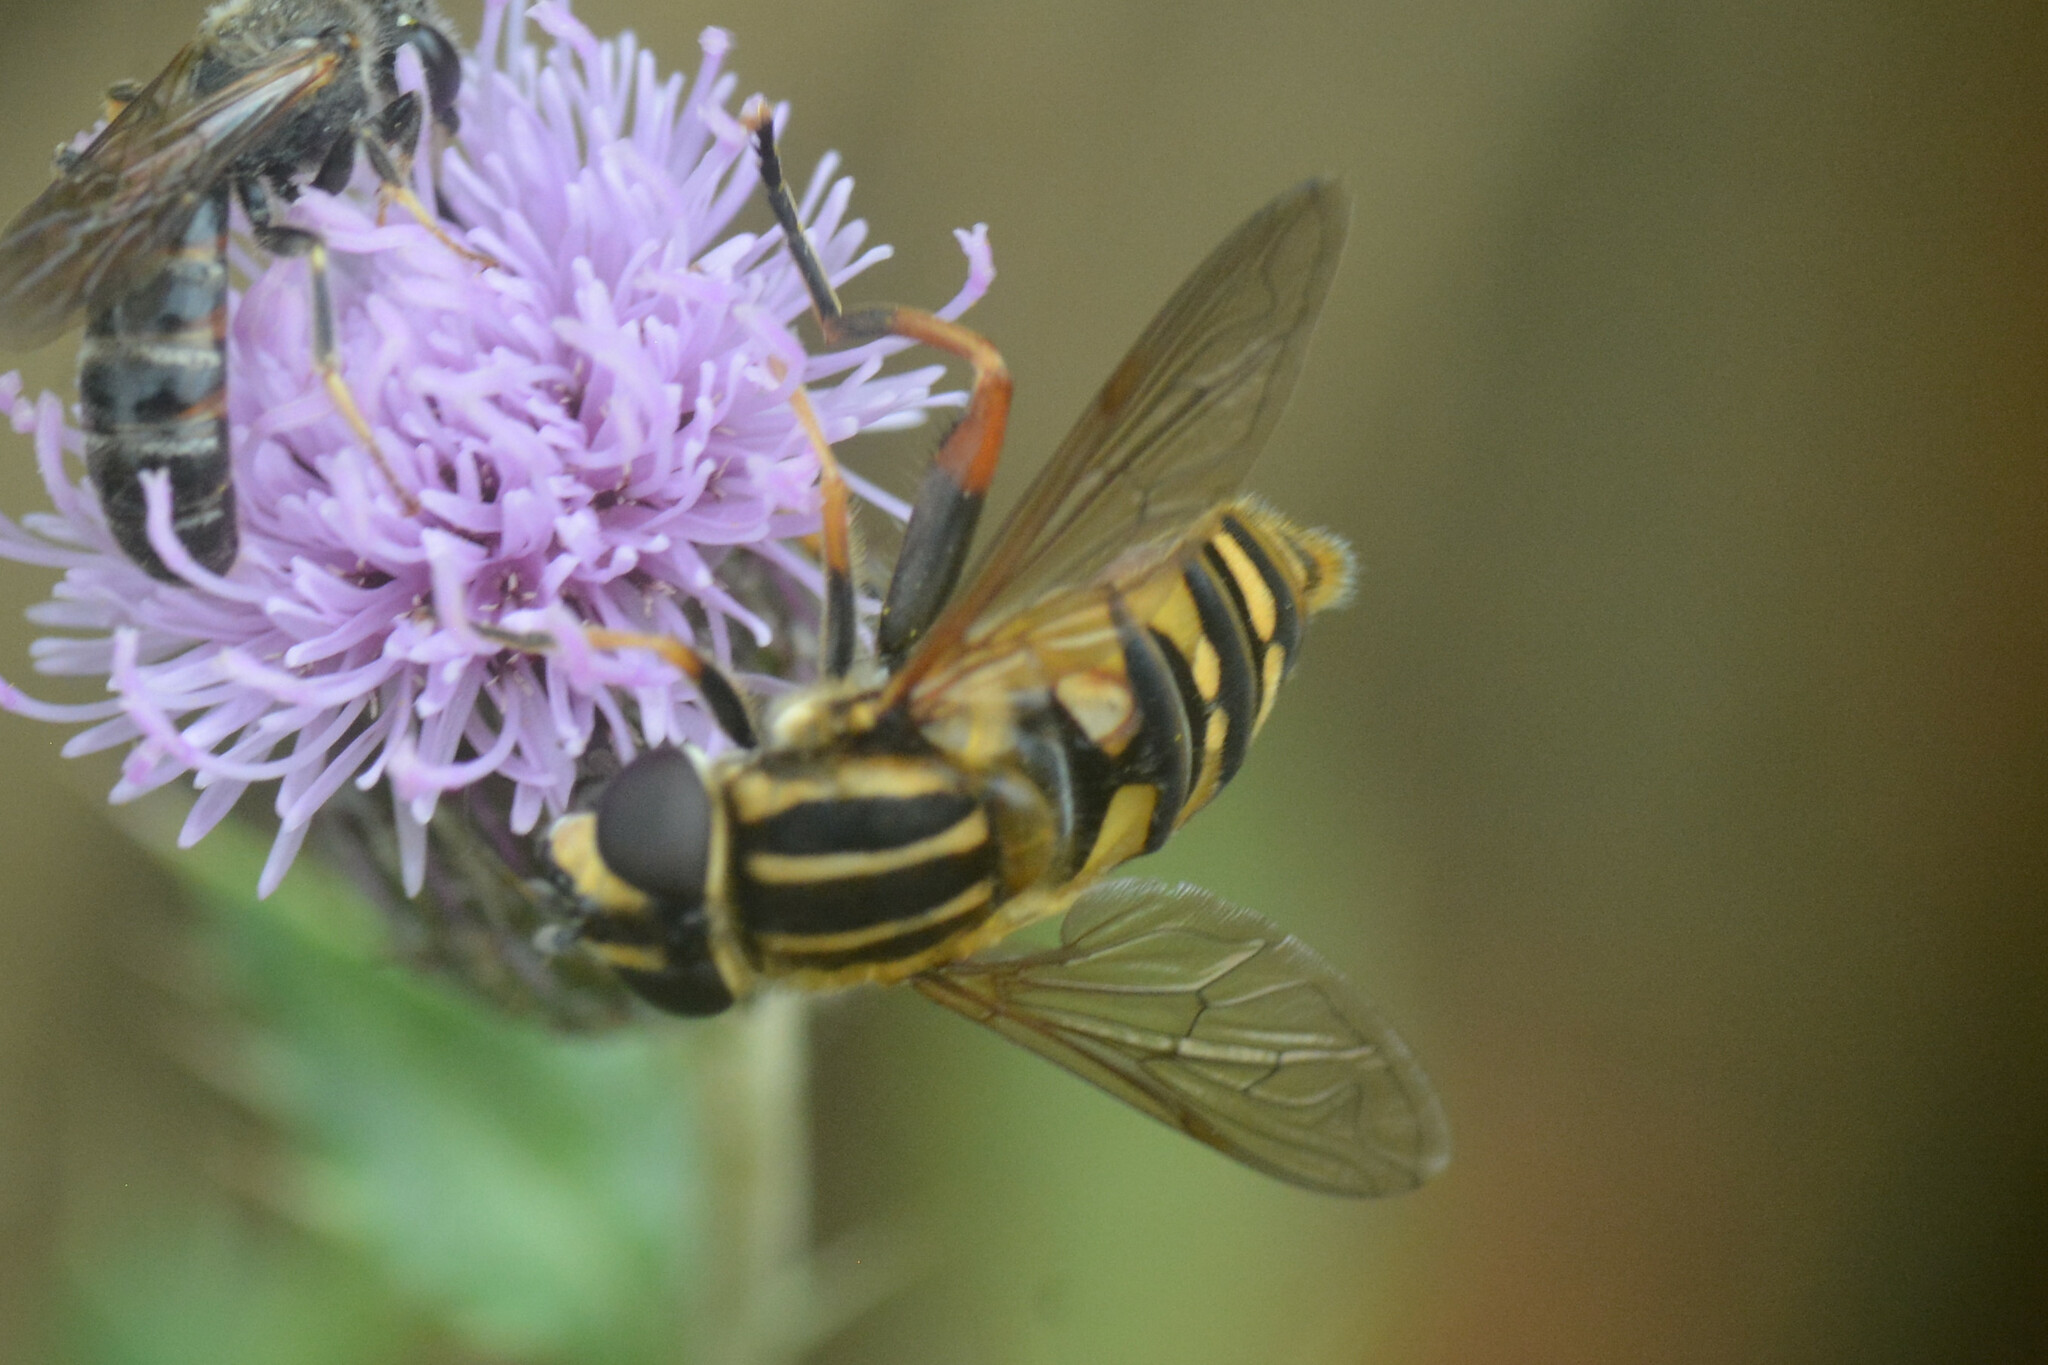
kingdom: Animalia
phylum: Arthropoda
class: Insecta
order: Diptera
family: Syrphidae
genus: Helophilus
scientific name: Helophilus pendulus
